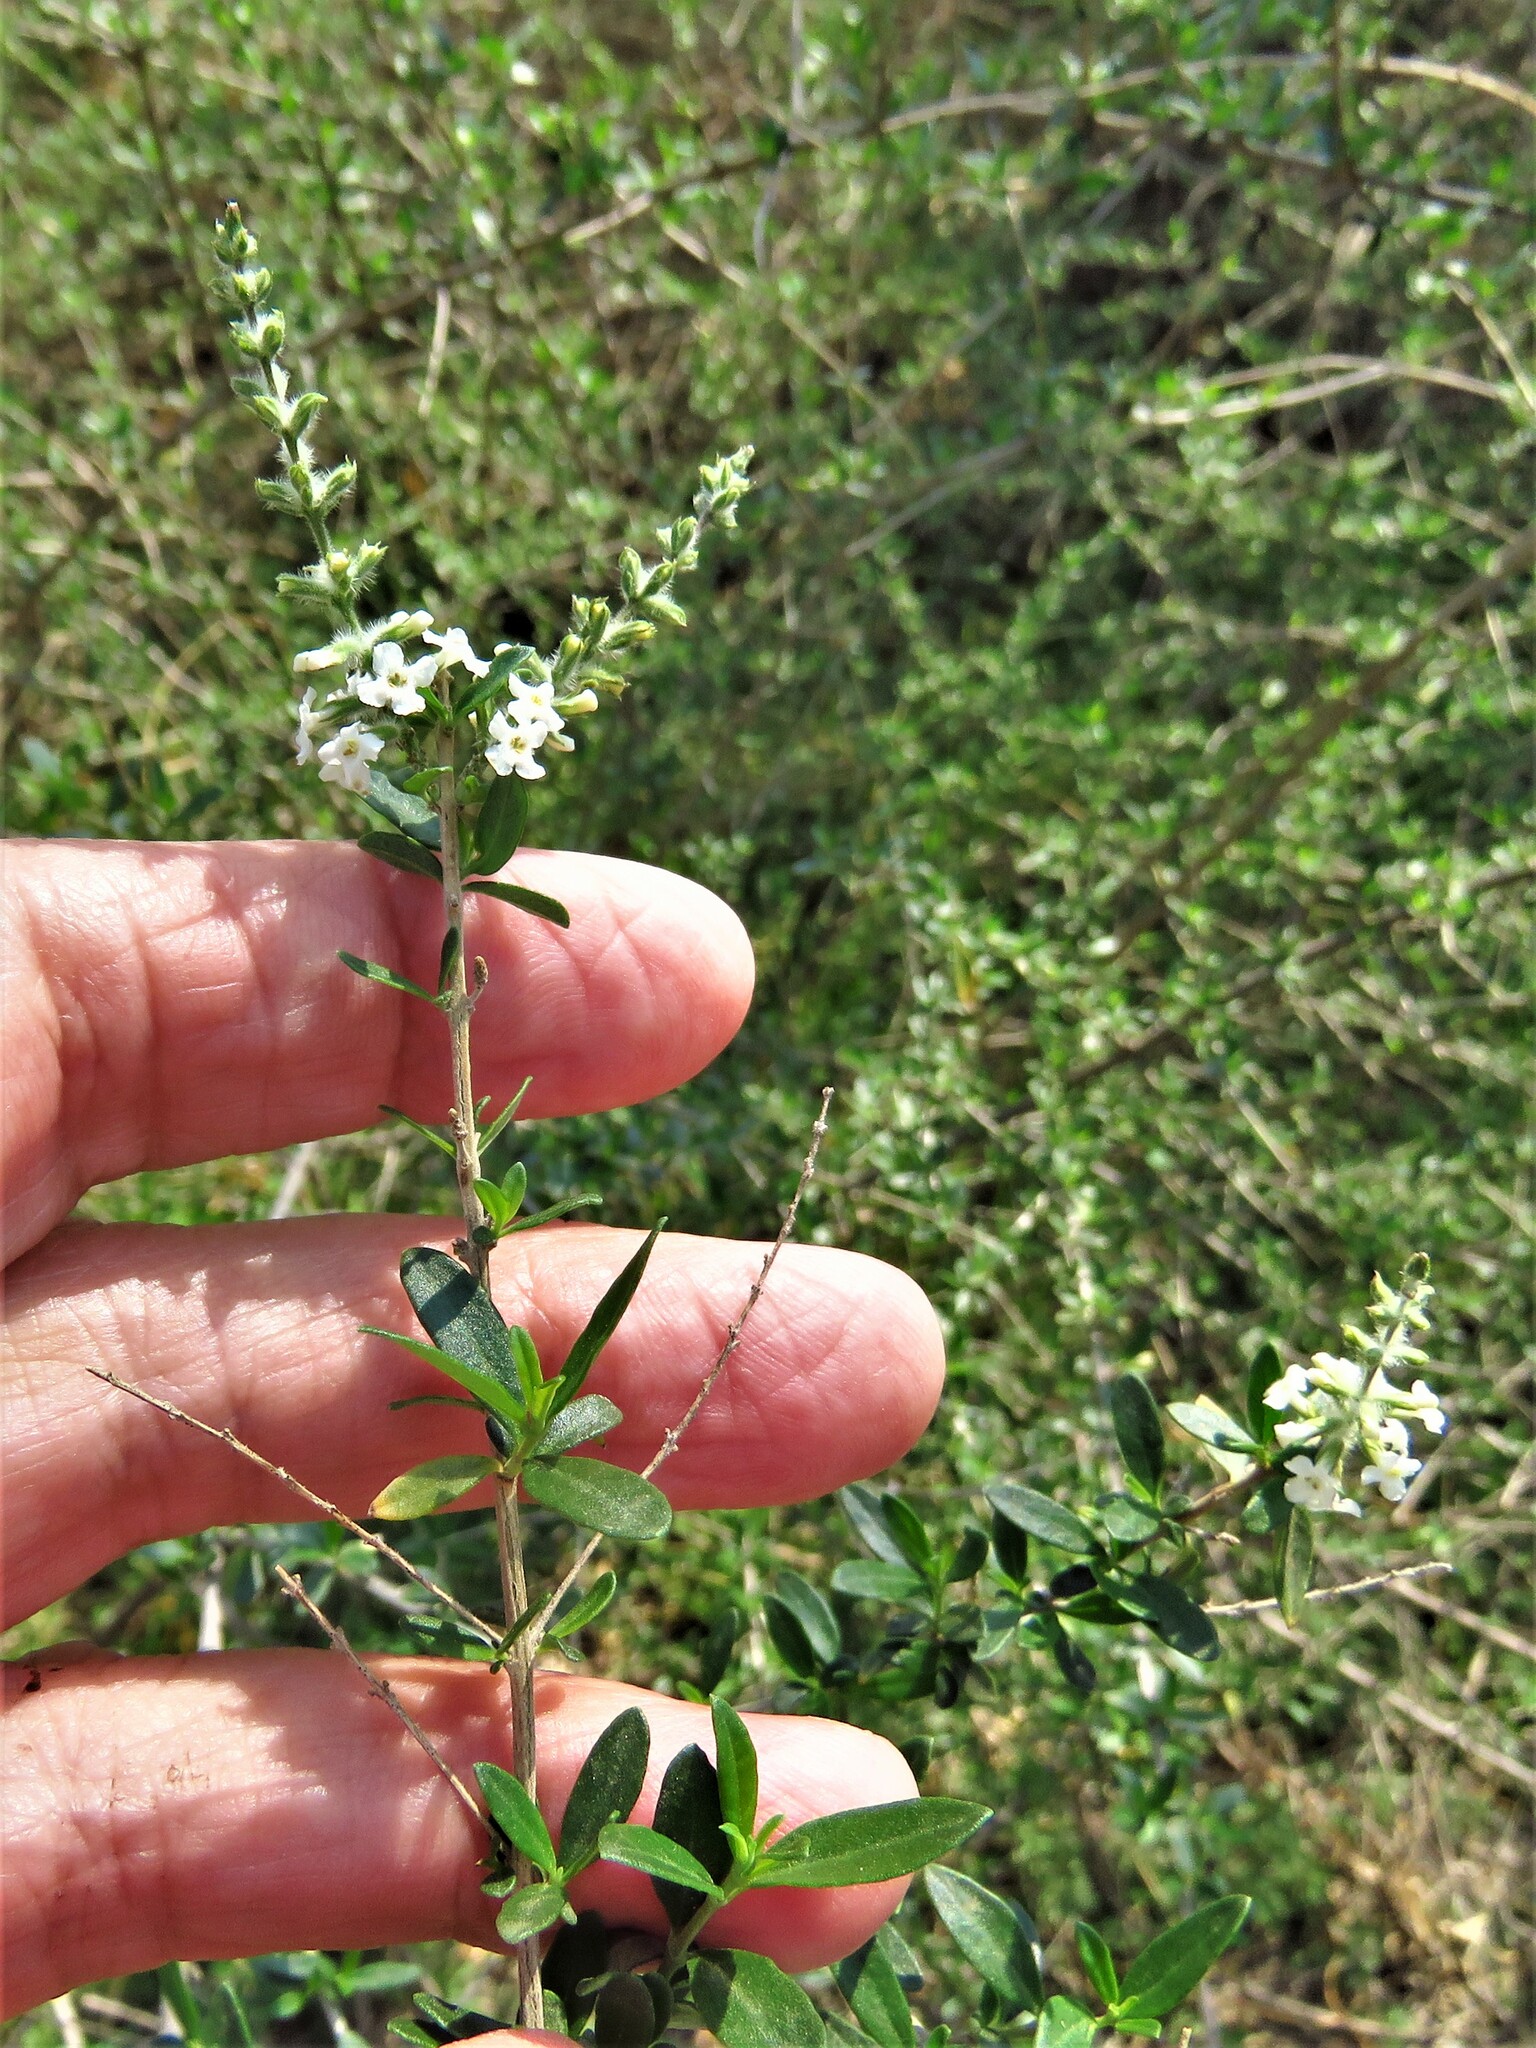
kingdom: Plantae
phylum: Tracheophyta
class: Magnoliopsida
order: Lamiales
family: Verbenaceae
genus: Aloysia
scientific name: Aloysia gratissima
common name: Common bee-brush
